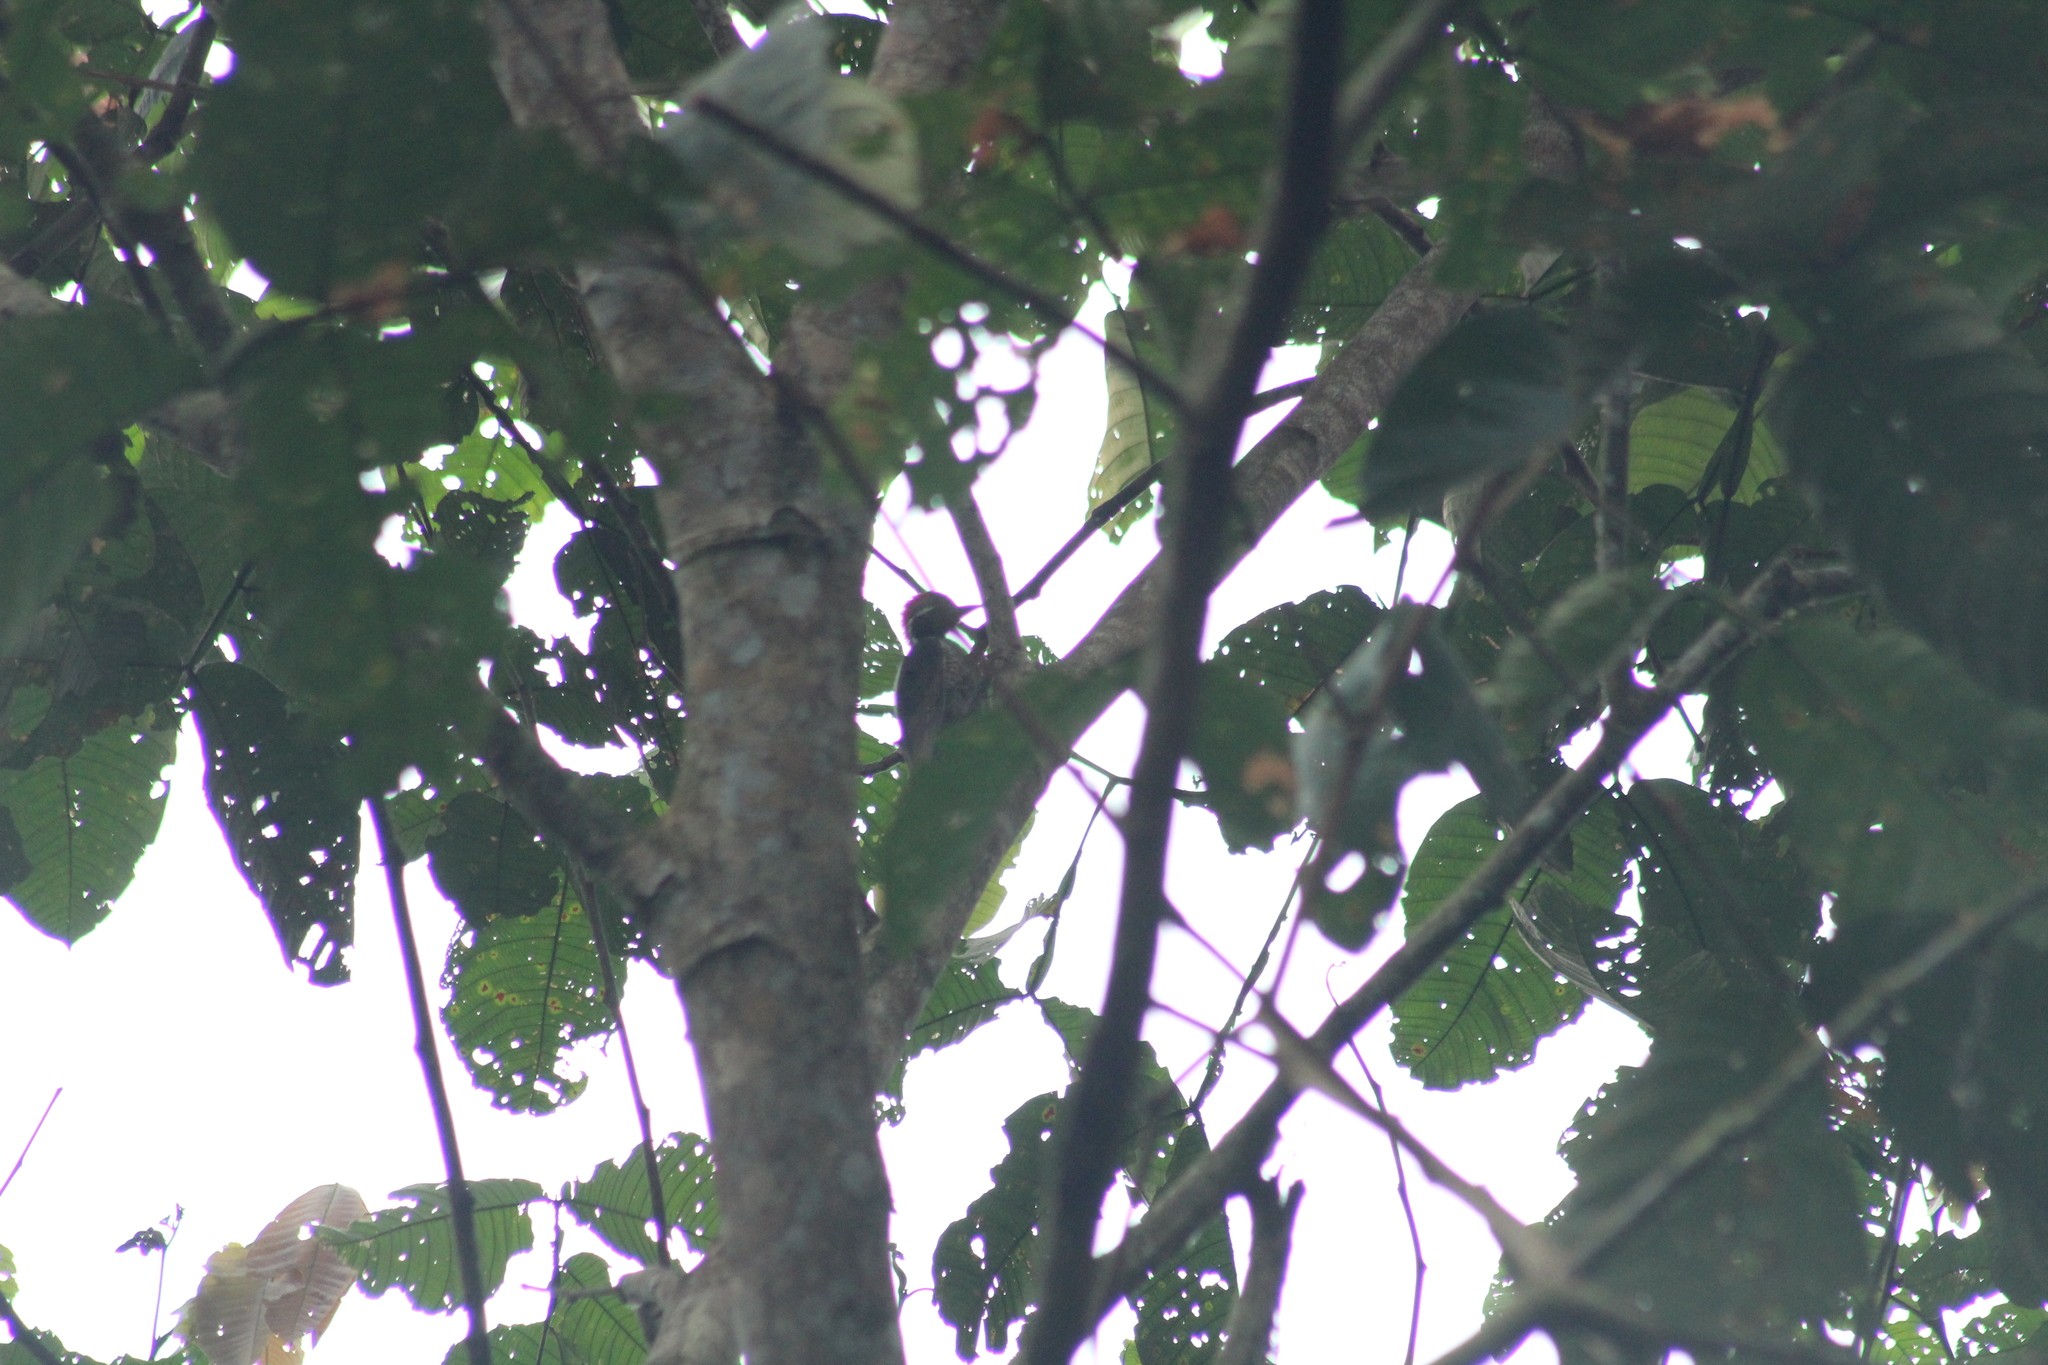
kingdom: Animalia
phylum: Chordata
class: Aves
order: Piciformes
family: Picidae
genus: Dryocopus
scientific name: Dryocopus lineatus
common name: Lineated woodpecker
